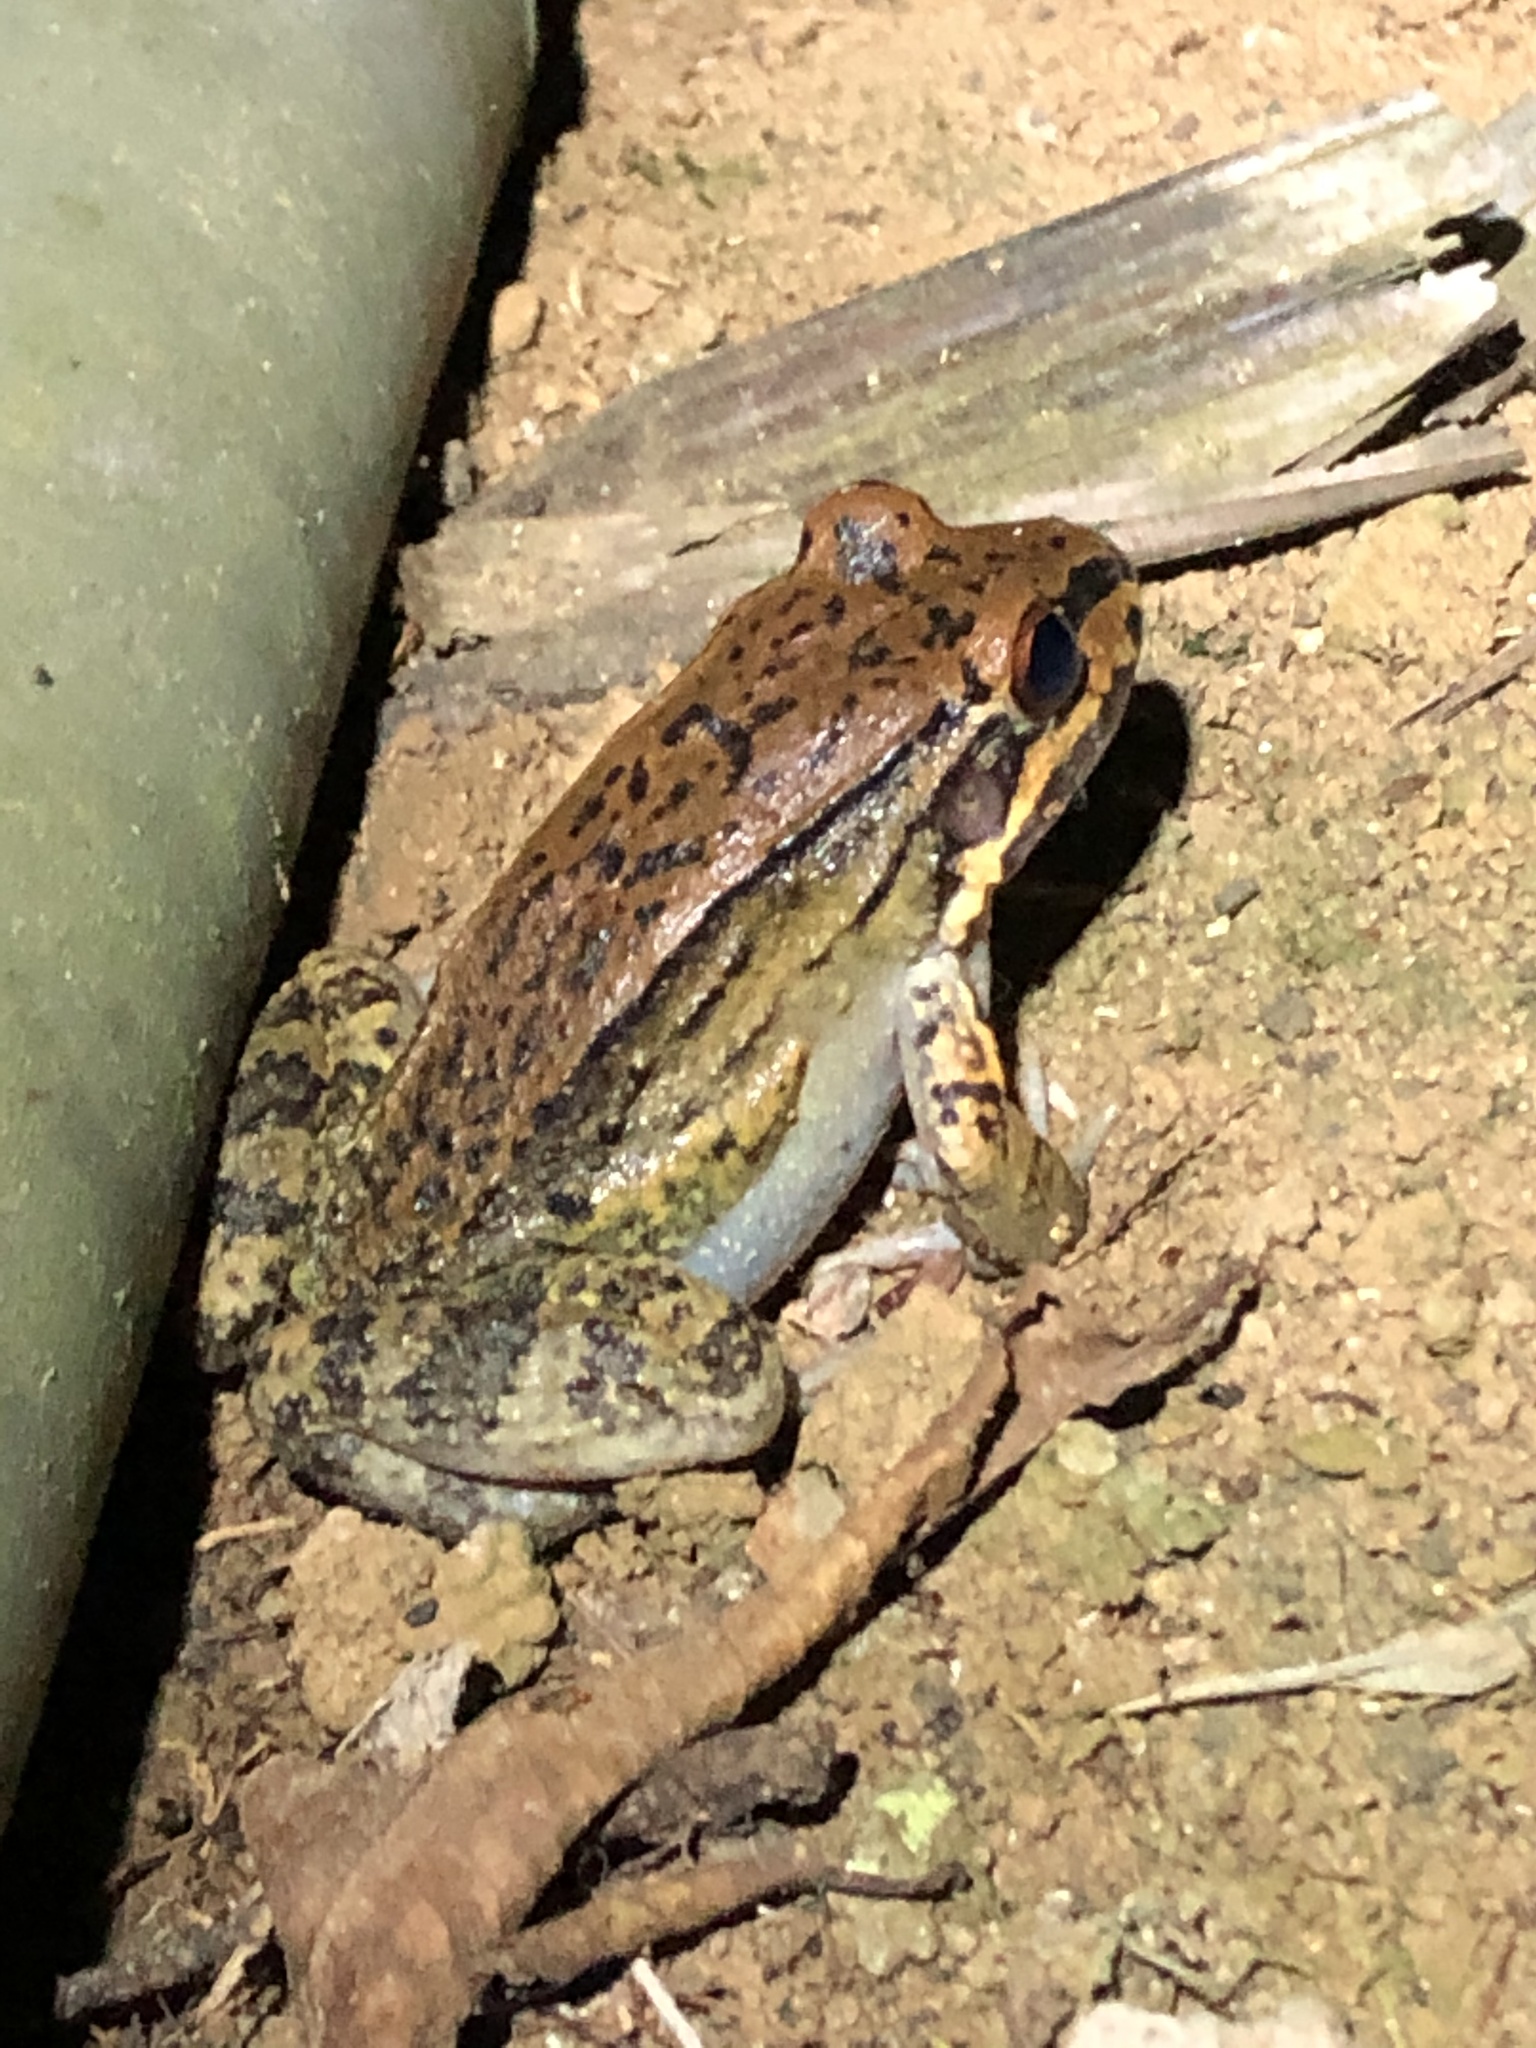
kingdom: Animalia
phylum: Chordata
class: Amphibia
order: Anura
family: Leptodactylidae
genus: Leptodactylus
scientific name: Leptodactylus rhodonotus
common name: Peru white-lipped frog
